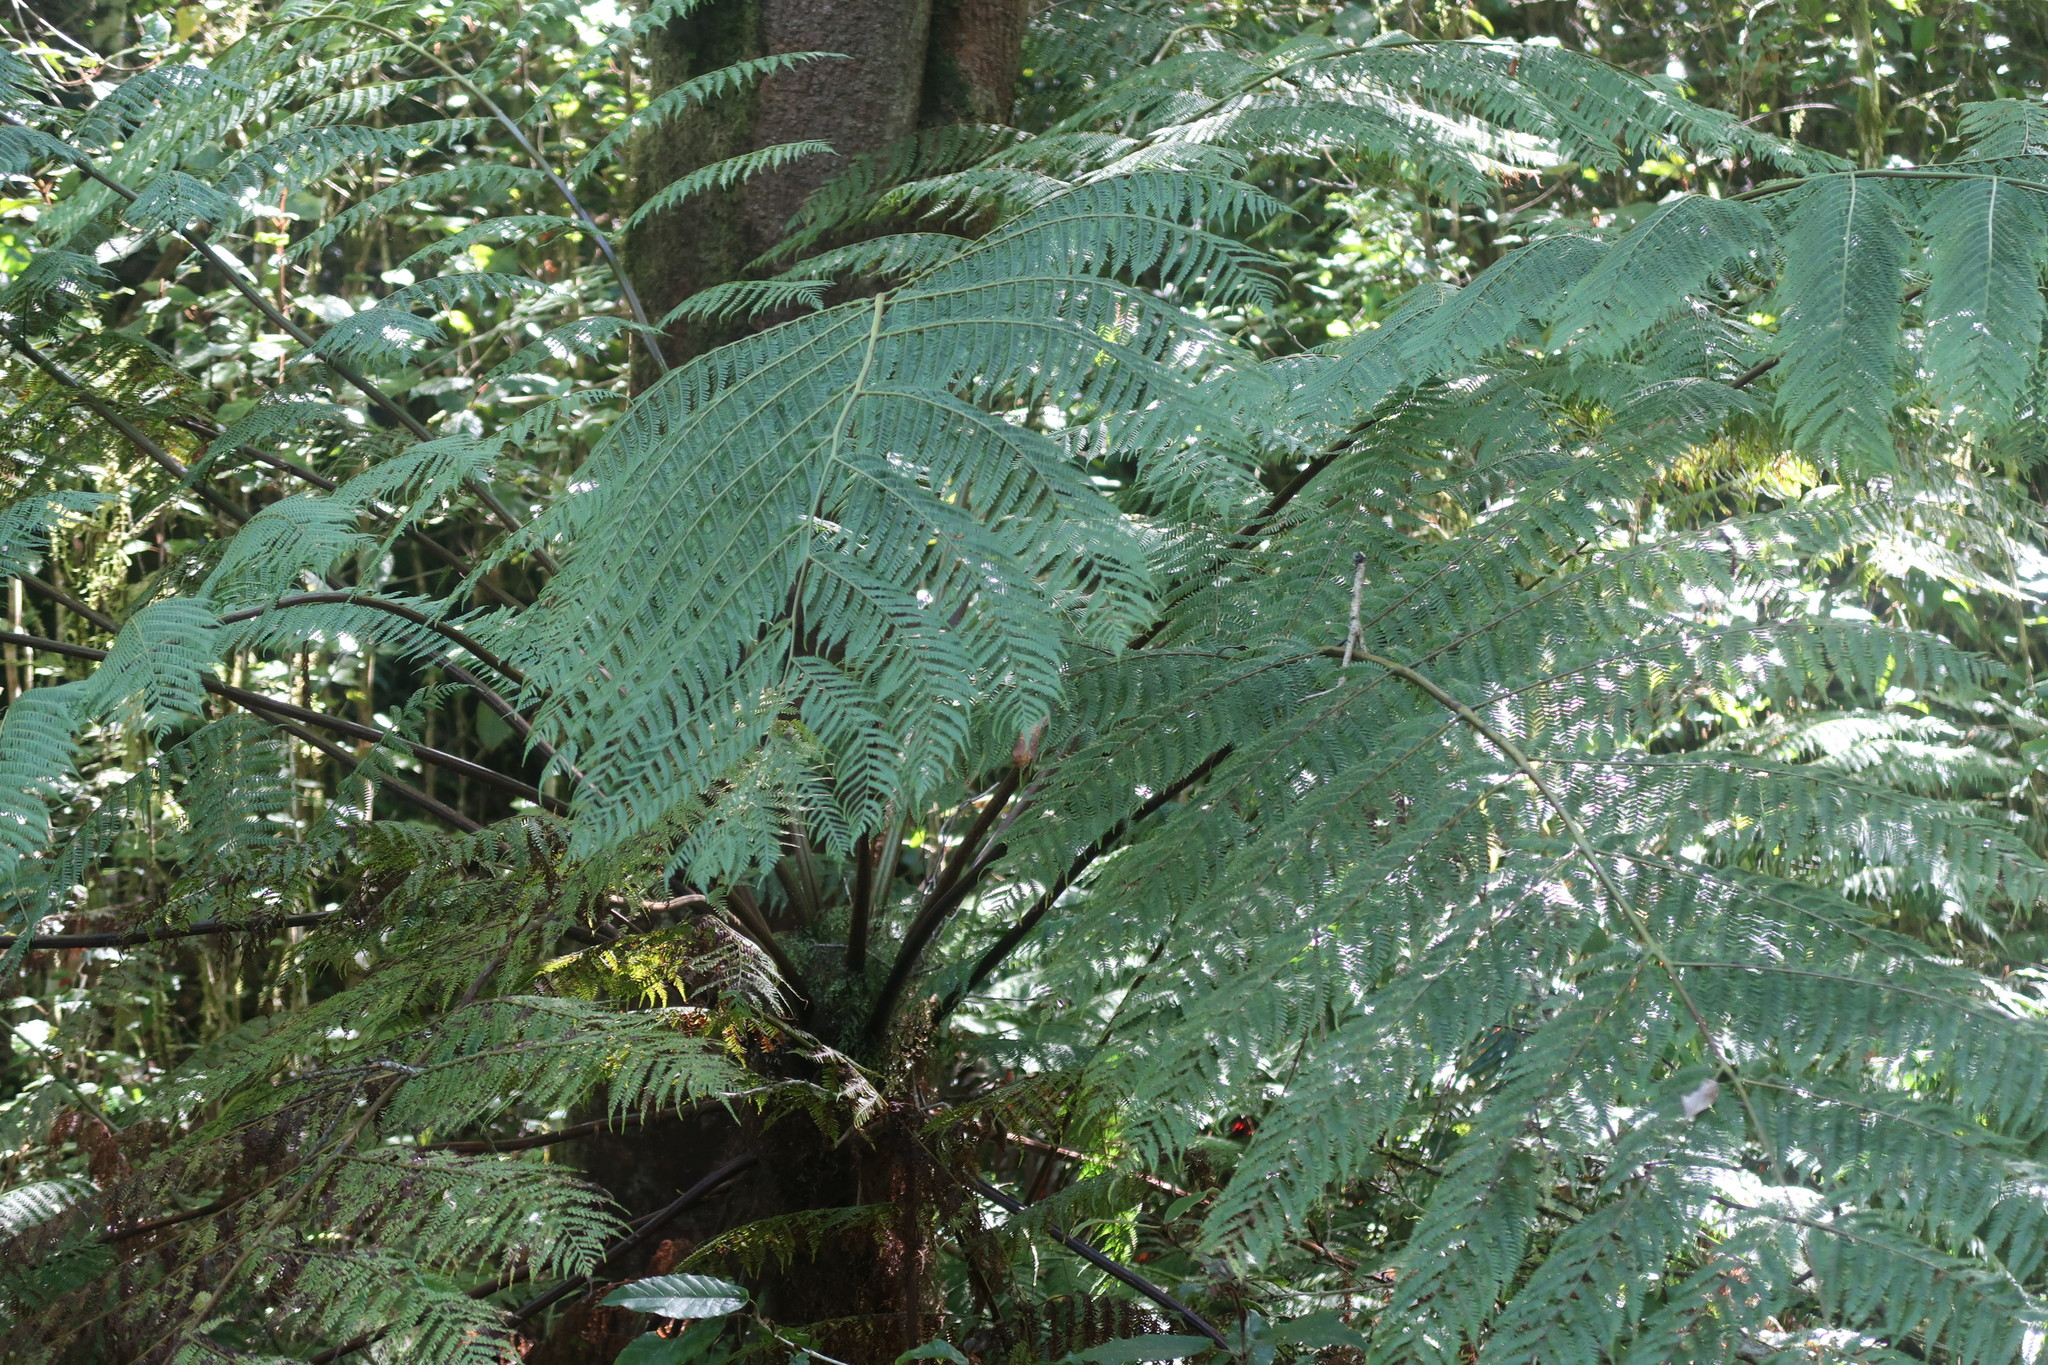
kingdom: Plantae
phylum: Tracheophyta
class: Polypodiopsida
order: Cyatheales
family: Cyatheaceae
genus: Gymnosphaera
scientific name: Gymnosphaera capensis
